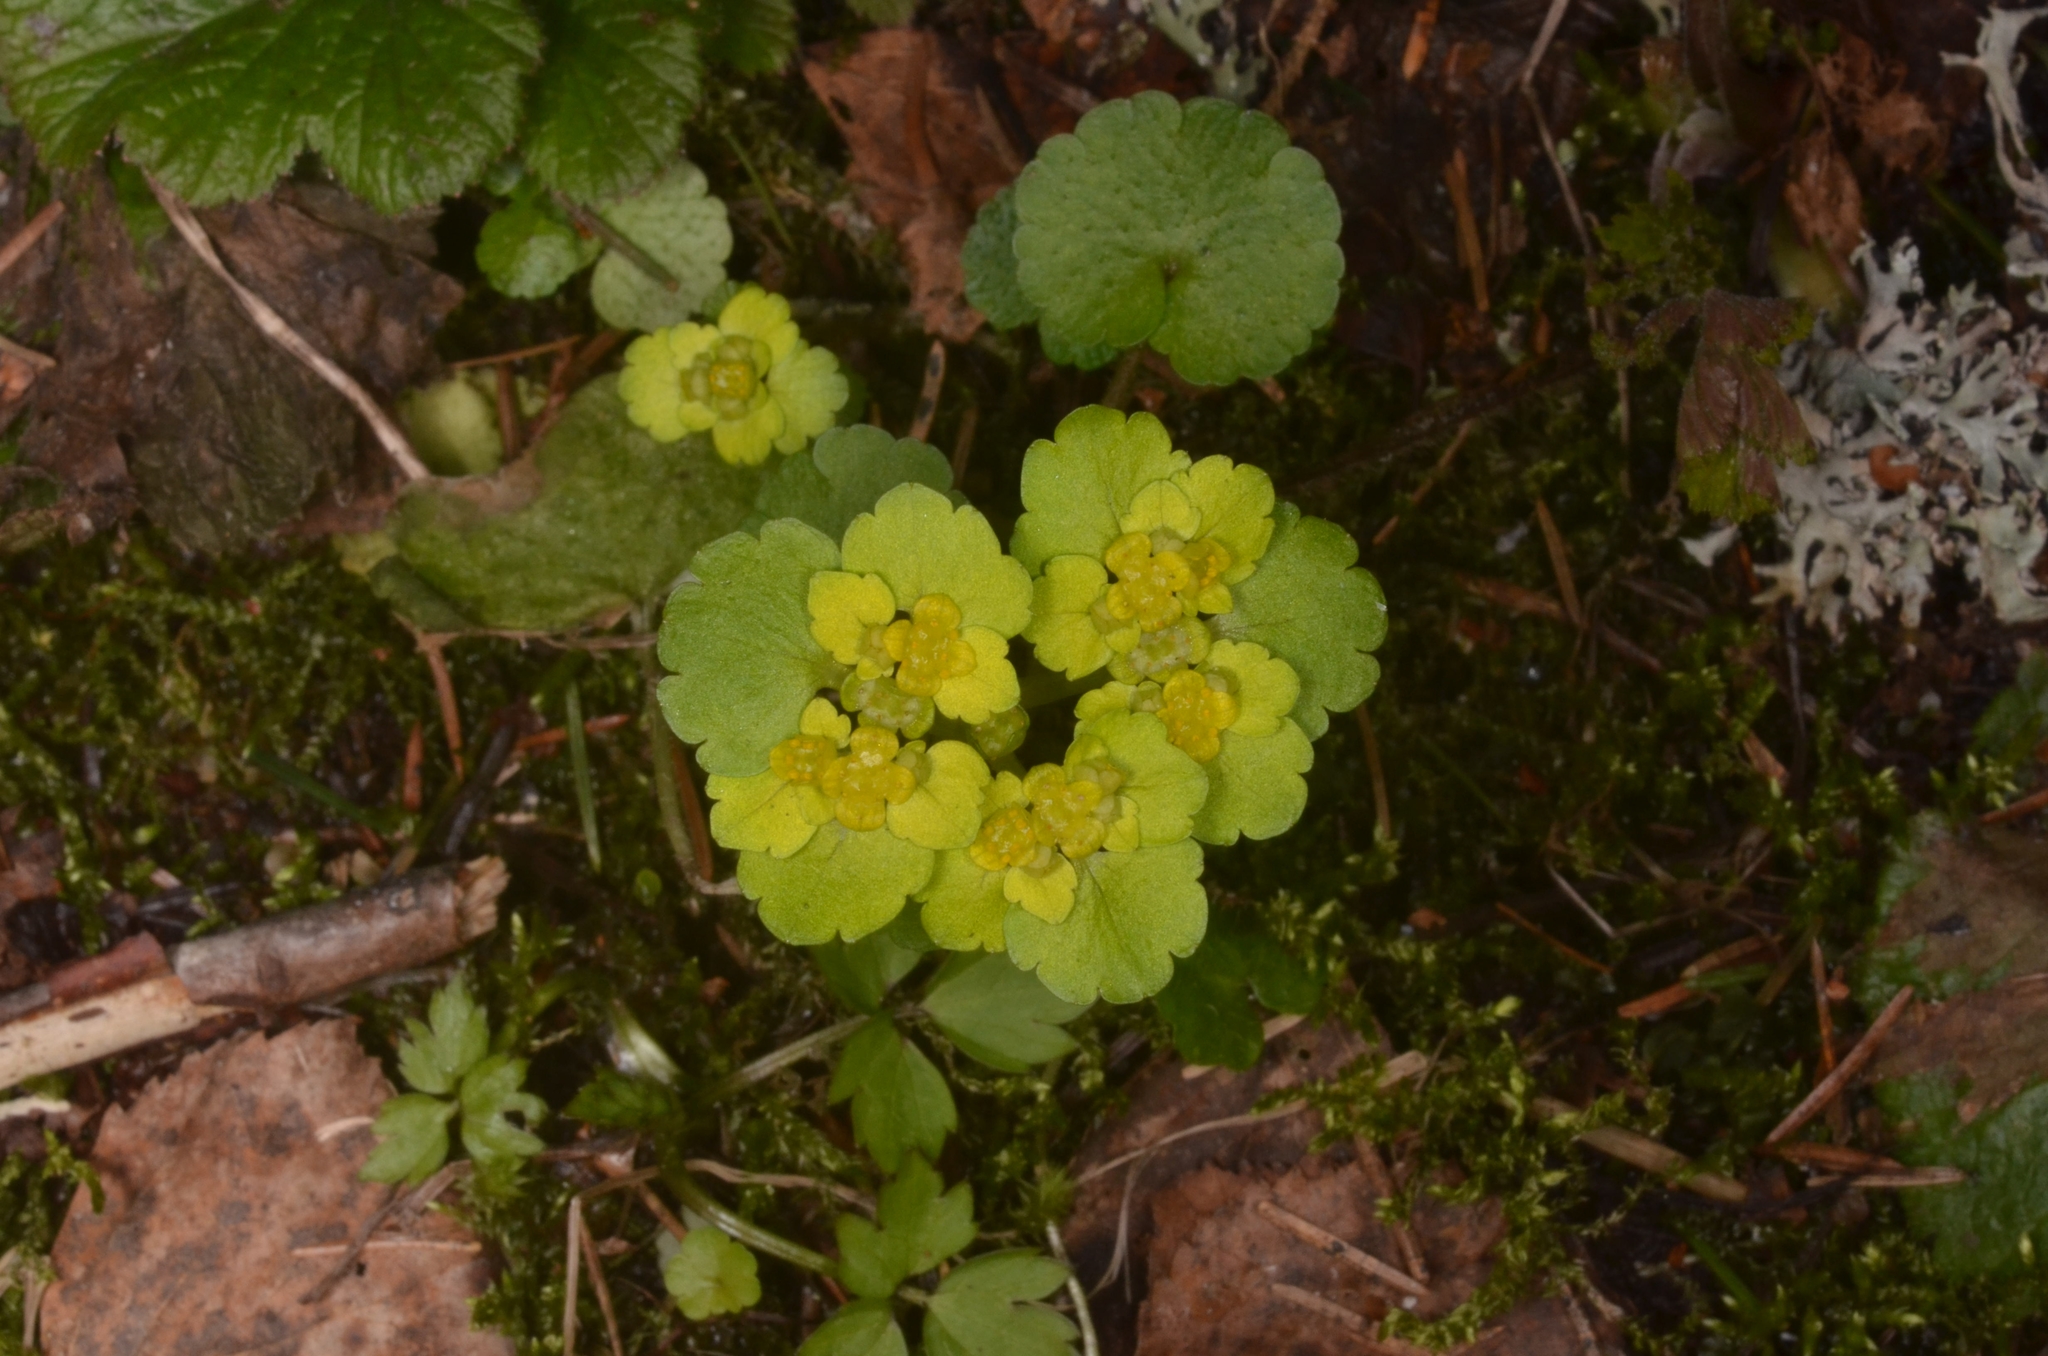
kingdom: Plantae
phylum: Tracheophyta
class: Magnoliopsida
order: Saxifragales
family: Saxifragaceae
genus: Chrysosplenium
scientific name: Chrysosplenium alternifolium
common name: Alternate-leaved golden-saxifrage
